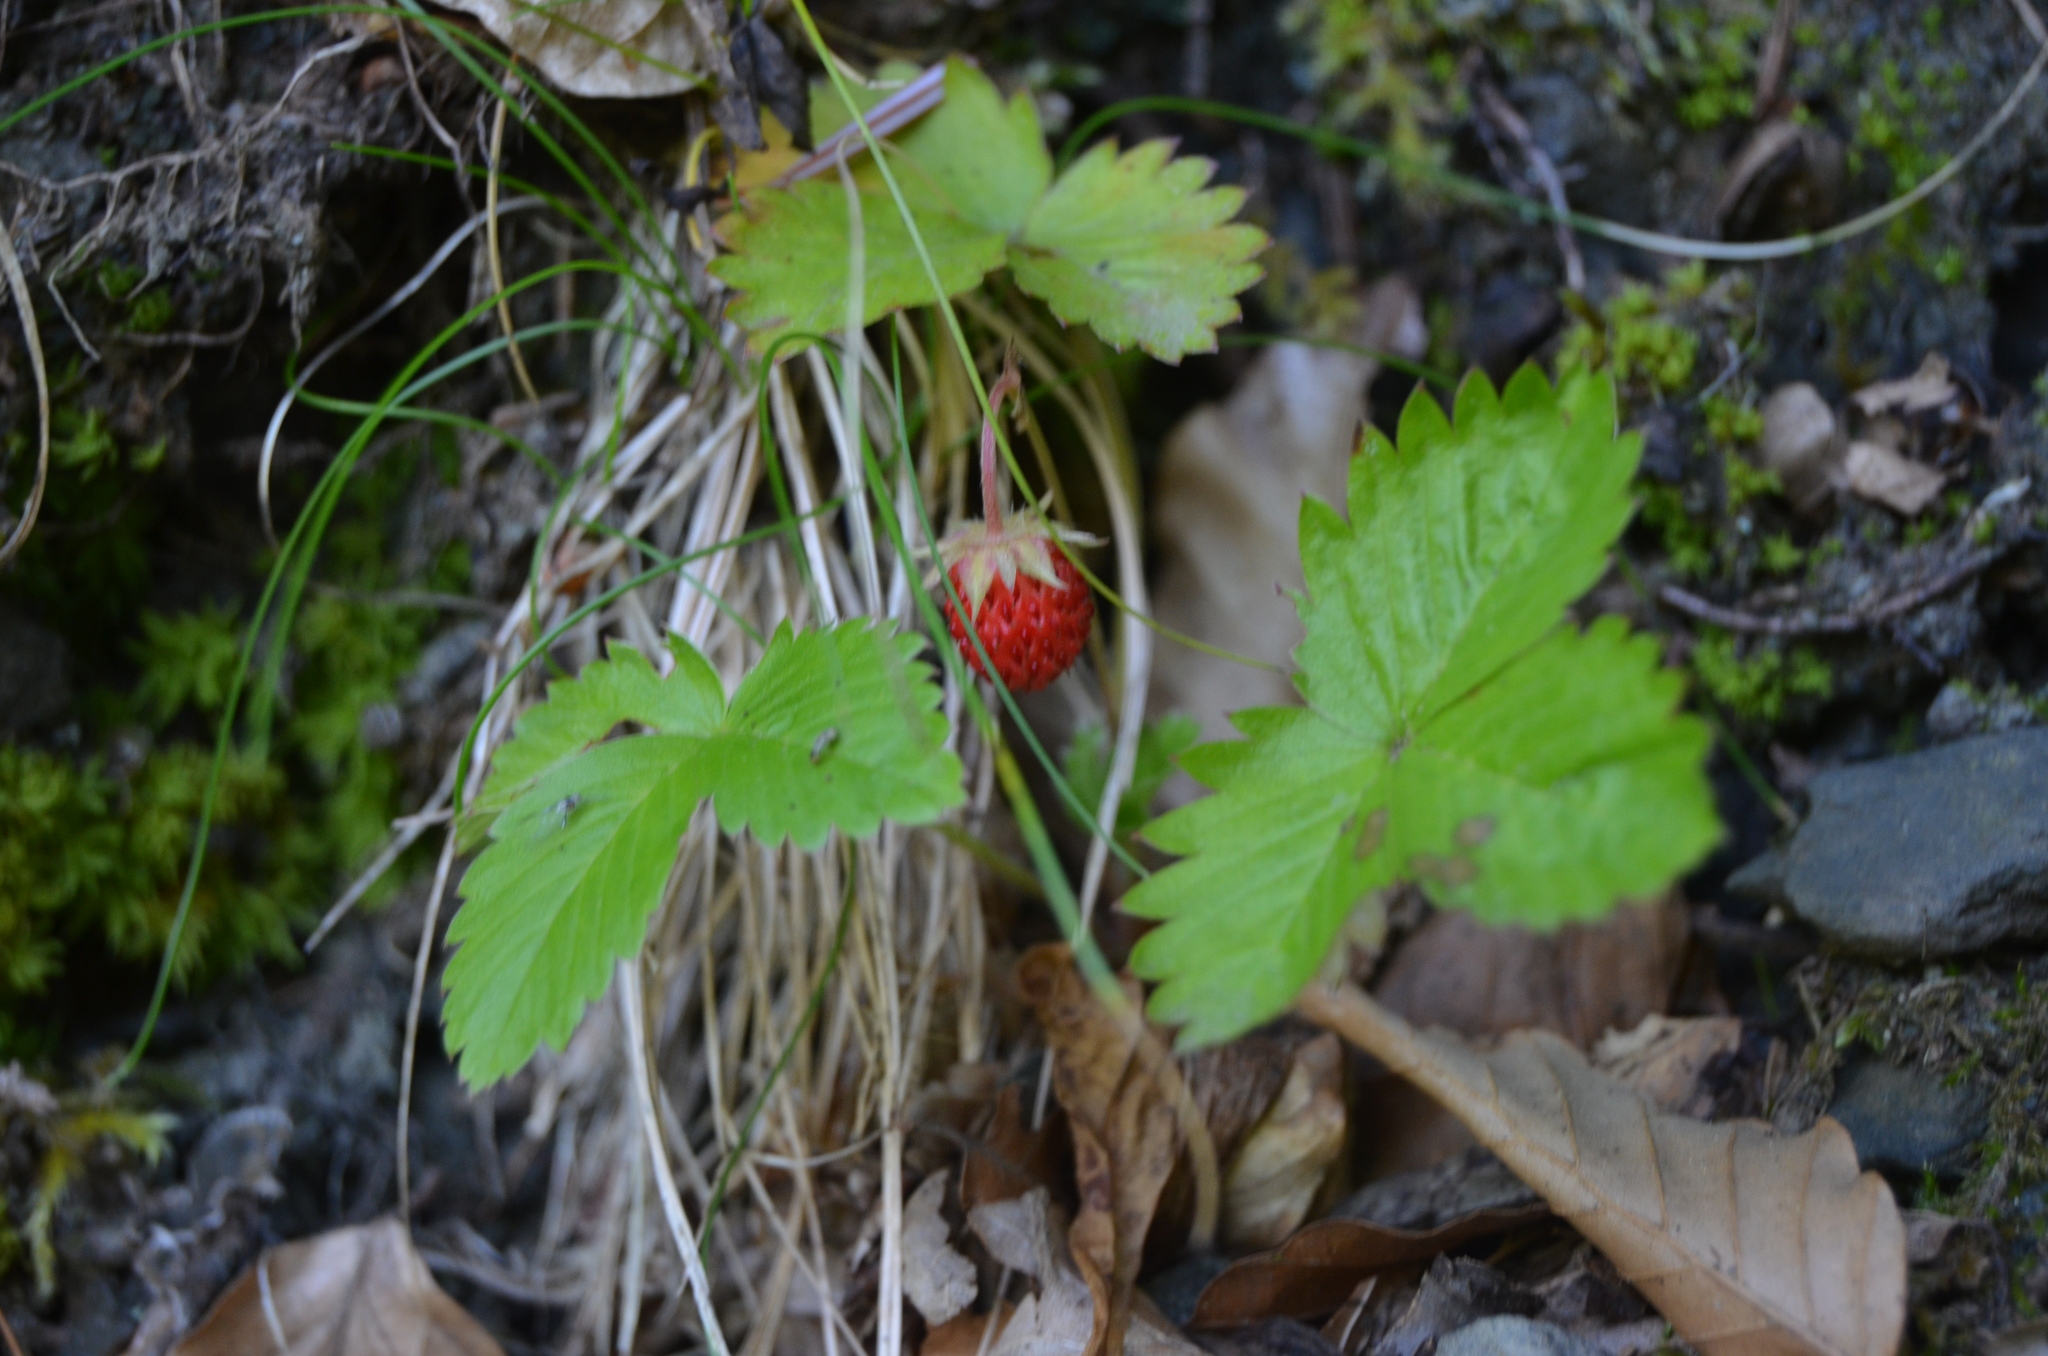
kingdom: Plantae
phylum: Tracheophyta
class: Magnoliopsida
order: Rosales
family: Rosaceae
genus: Fragaria
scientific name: Fragaria vesca
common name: Wild strawberry
